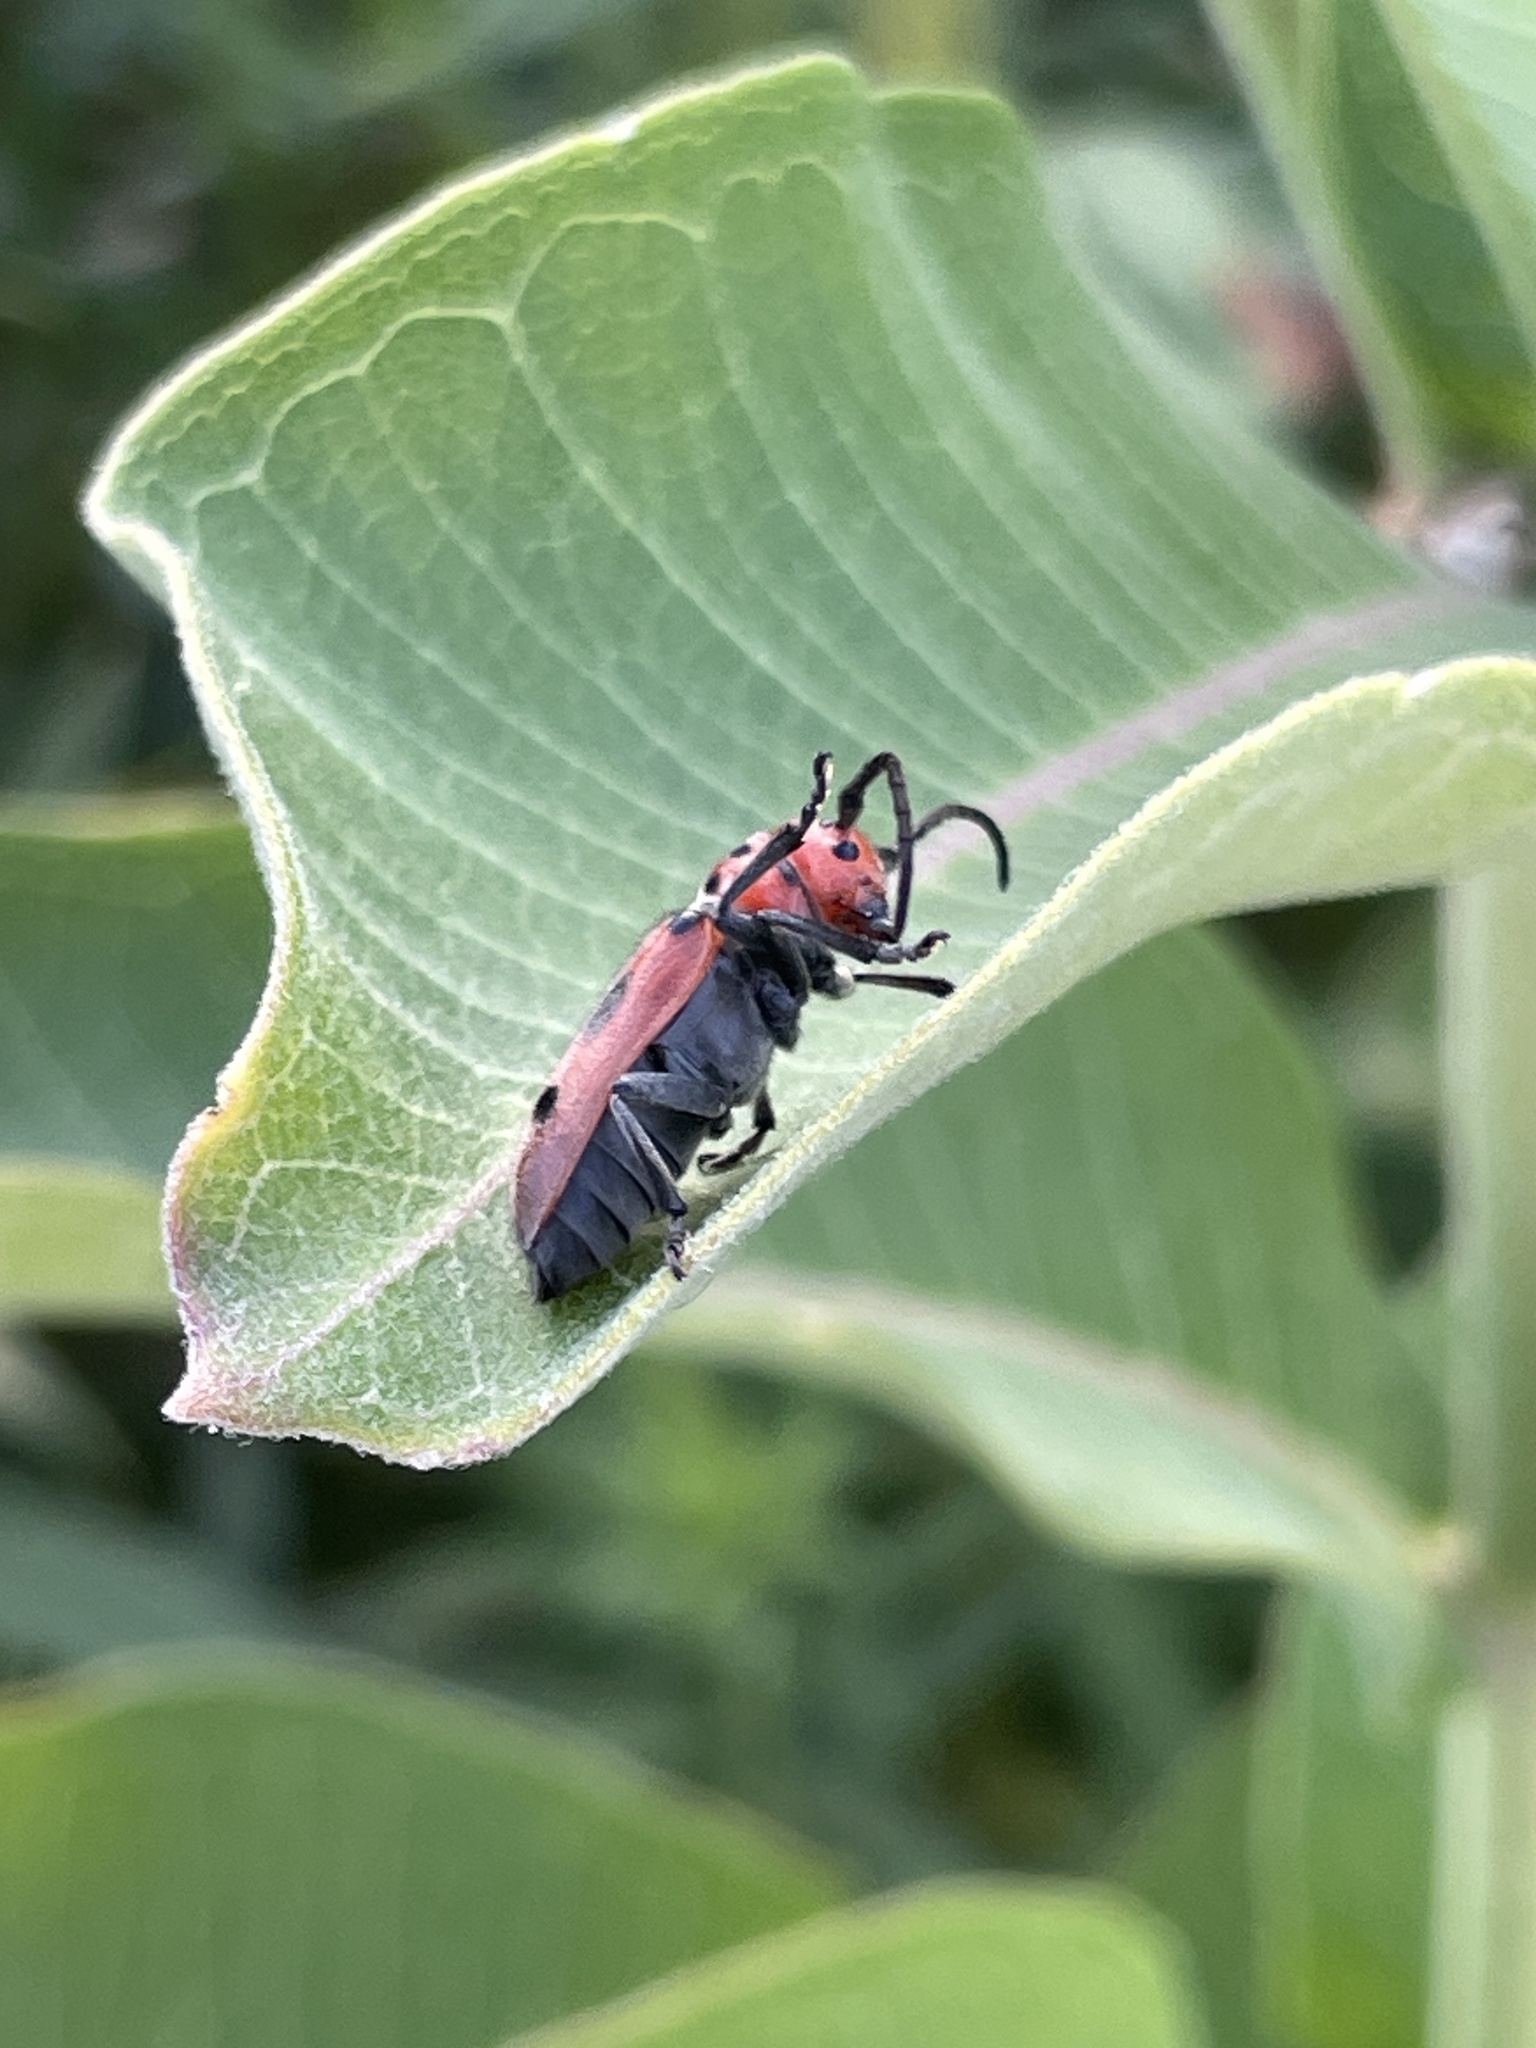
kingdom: Animalia
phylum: Arthropoda
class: Insecta
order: Coleoptera
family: Cerambycidae
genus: Tetraopes
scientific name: Tetraopes tetrophthalmus
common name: Red milkweed beetle
